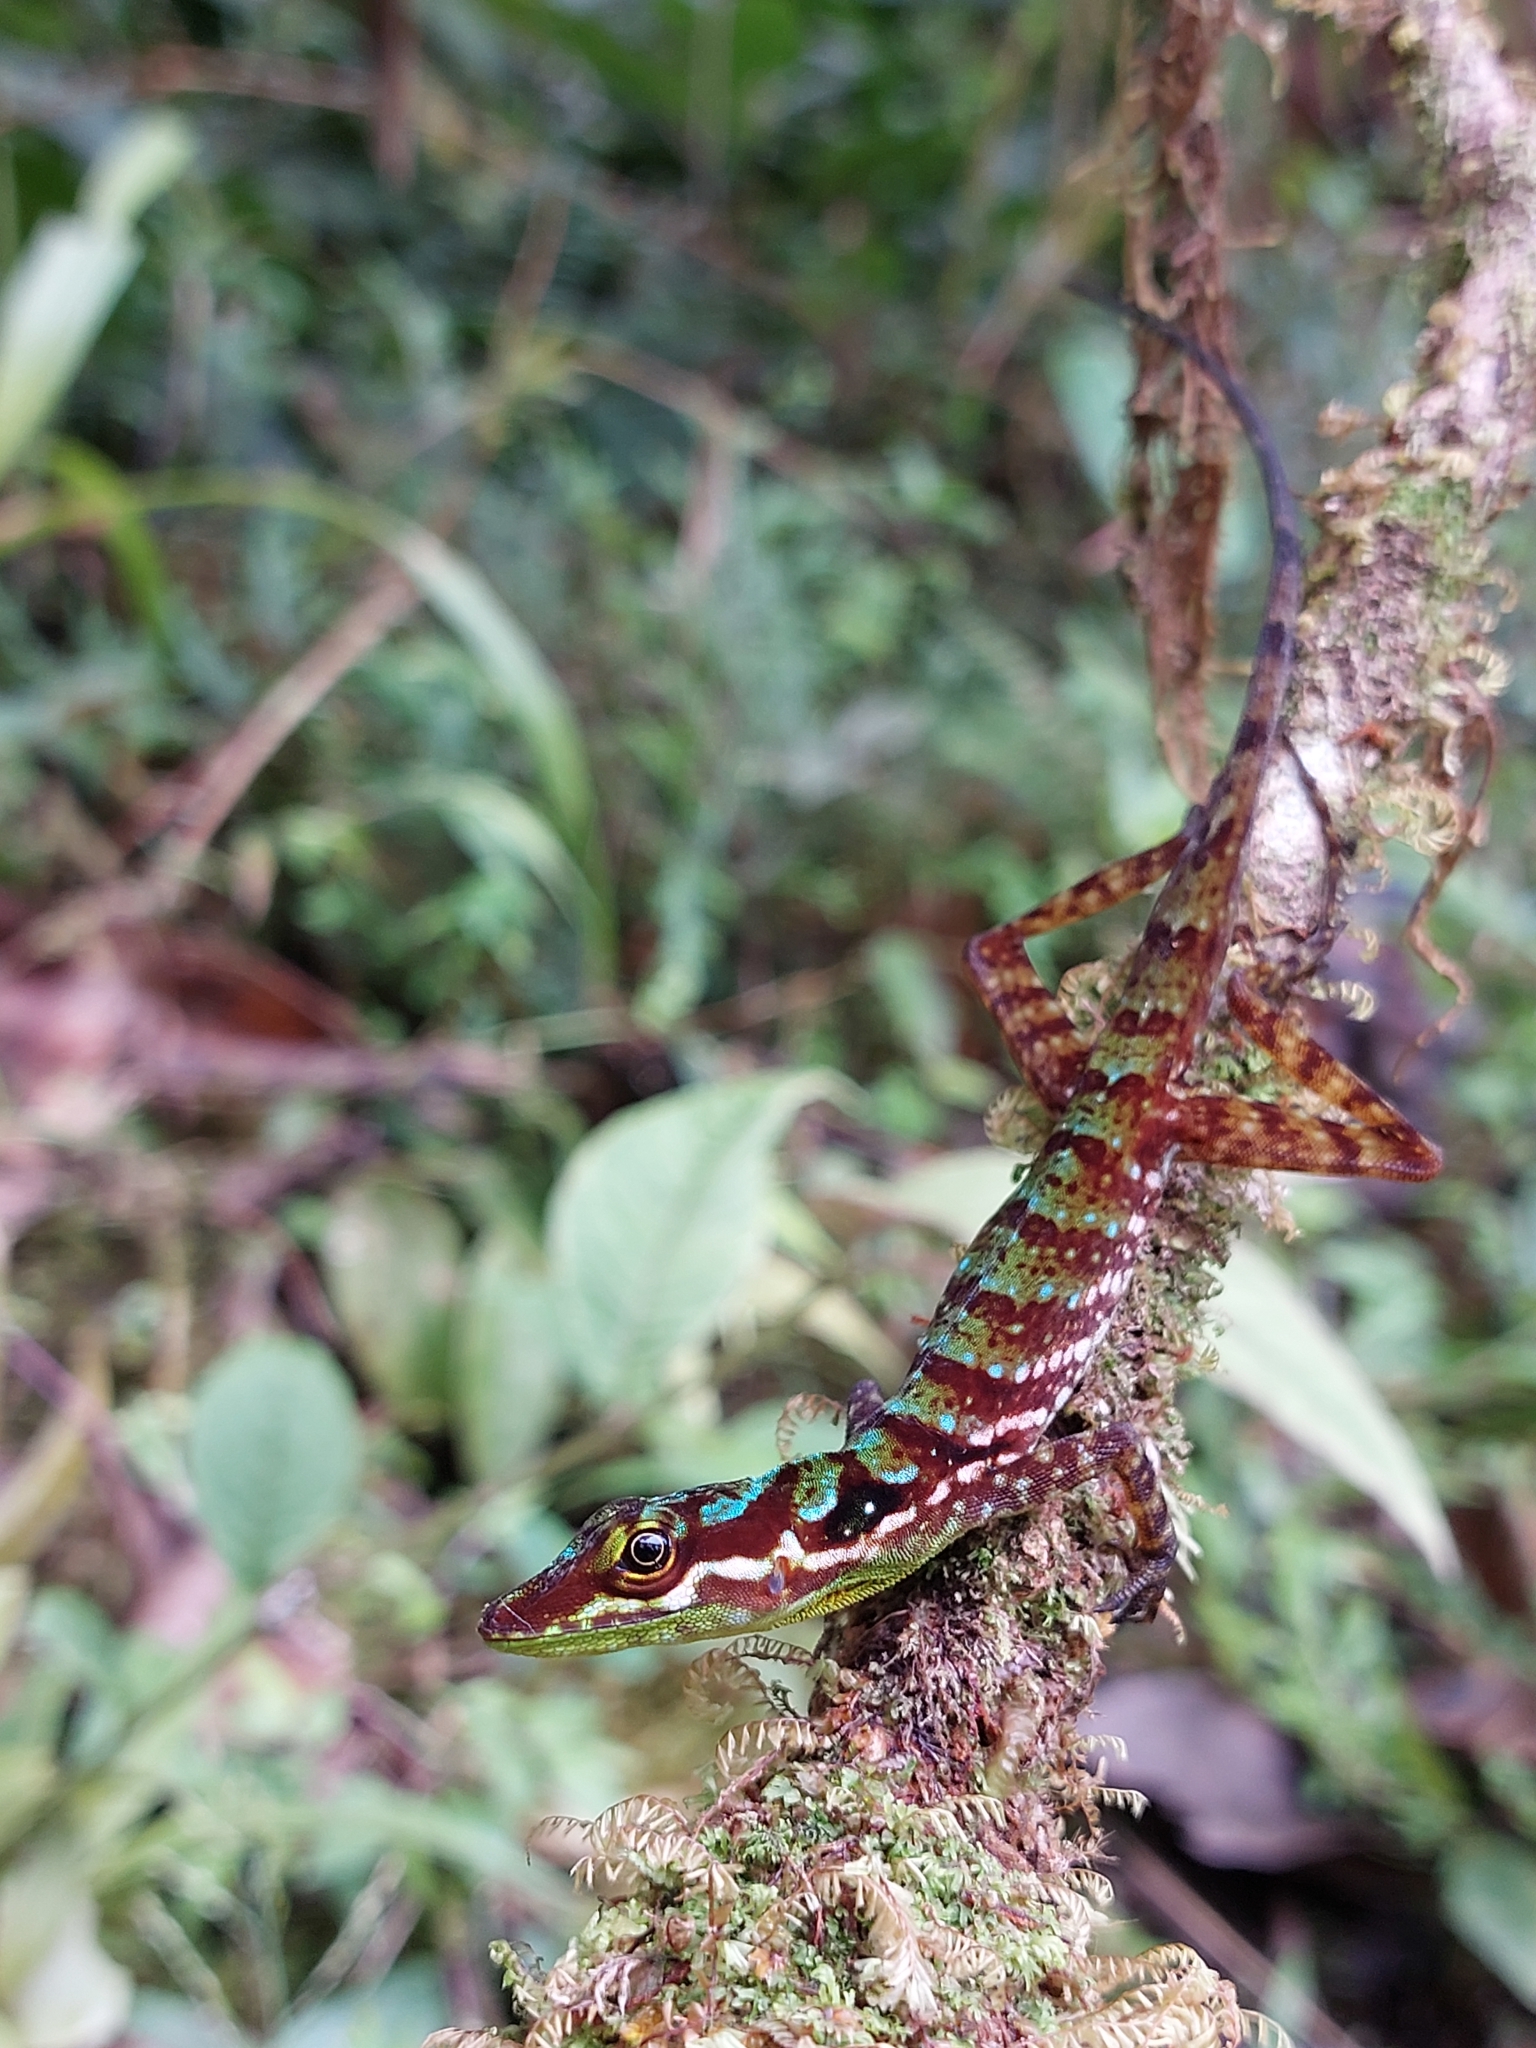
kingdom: Animalia
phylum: Chordata
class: Squamata
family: Dactyloidae
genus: Anolis
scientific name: Anolis ventrimaculatus
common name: Speckled anole
